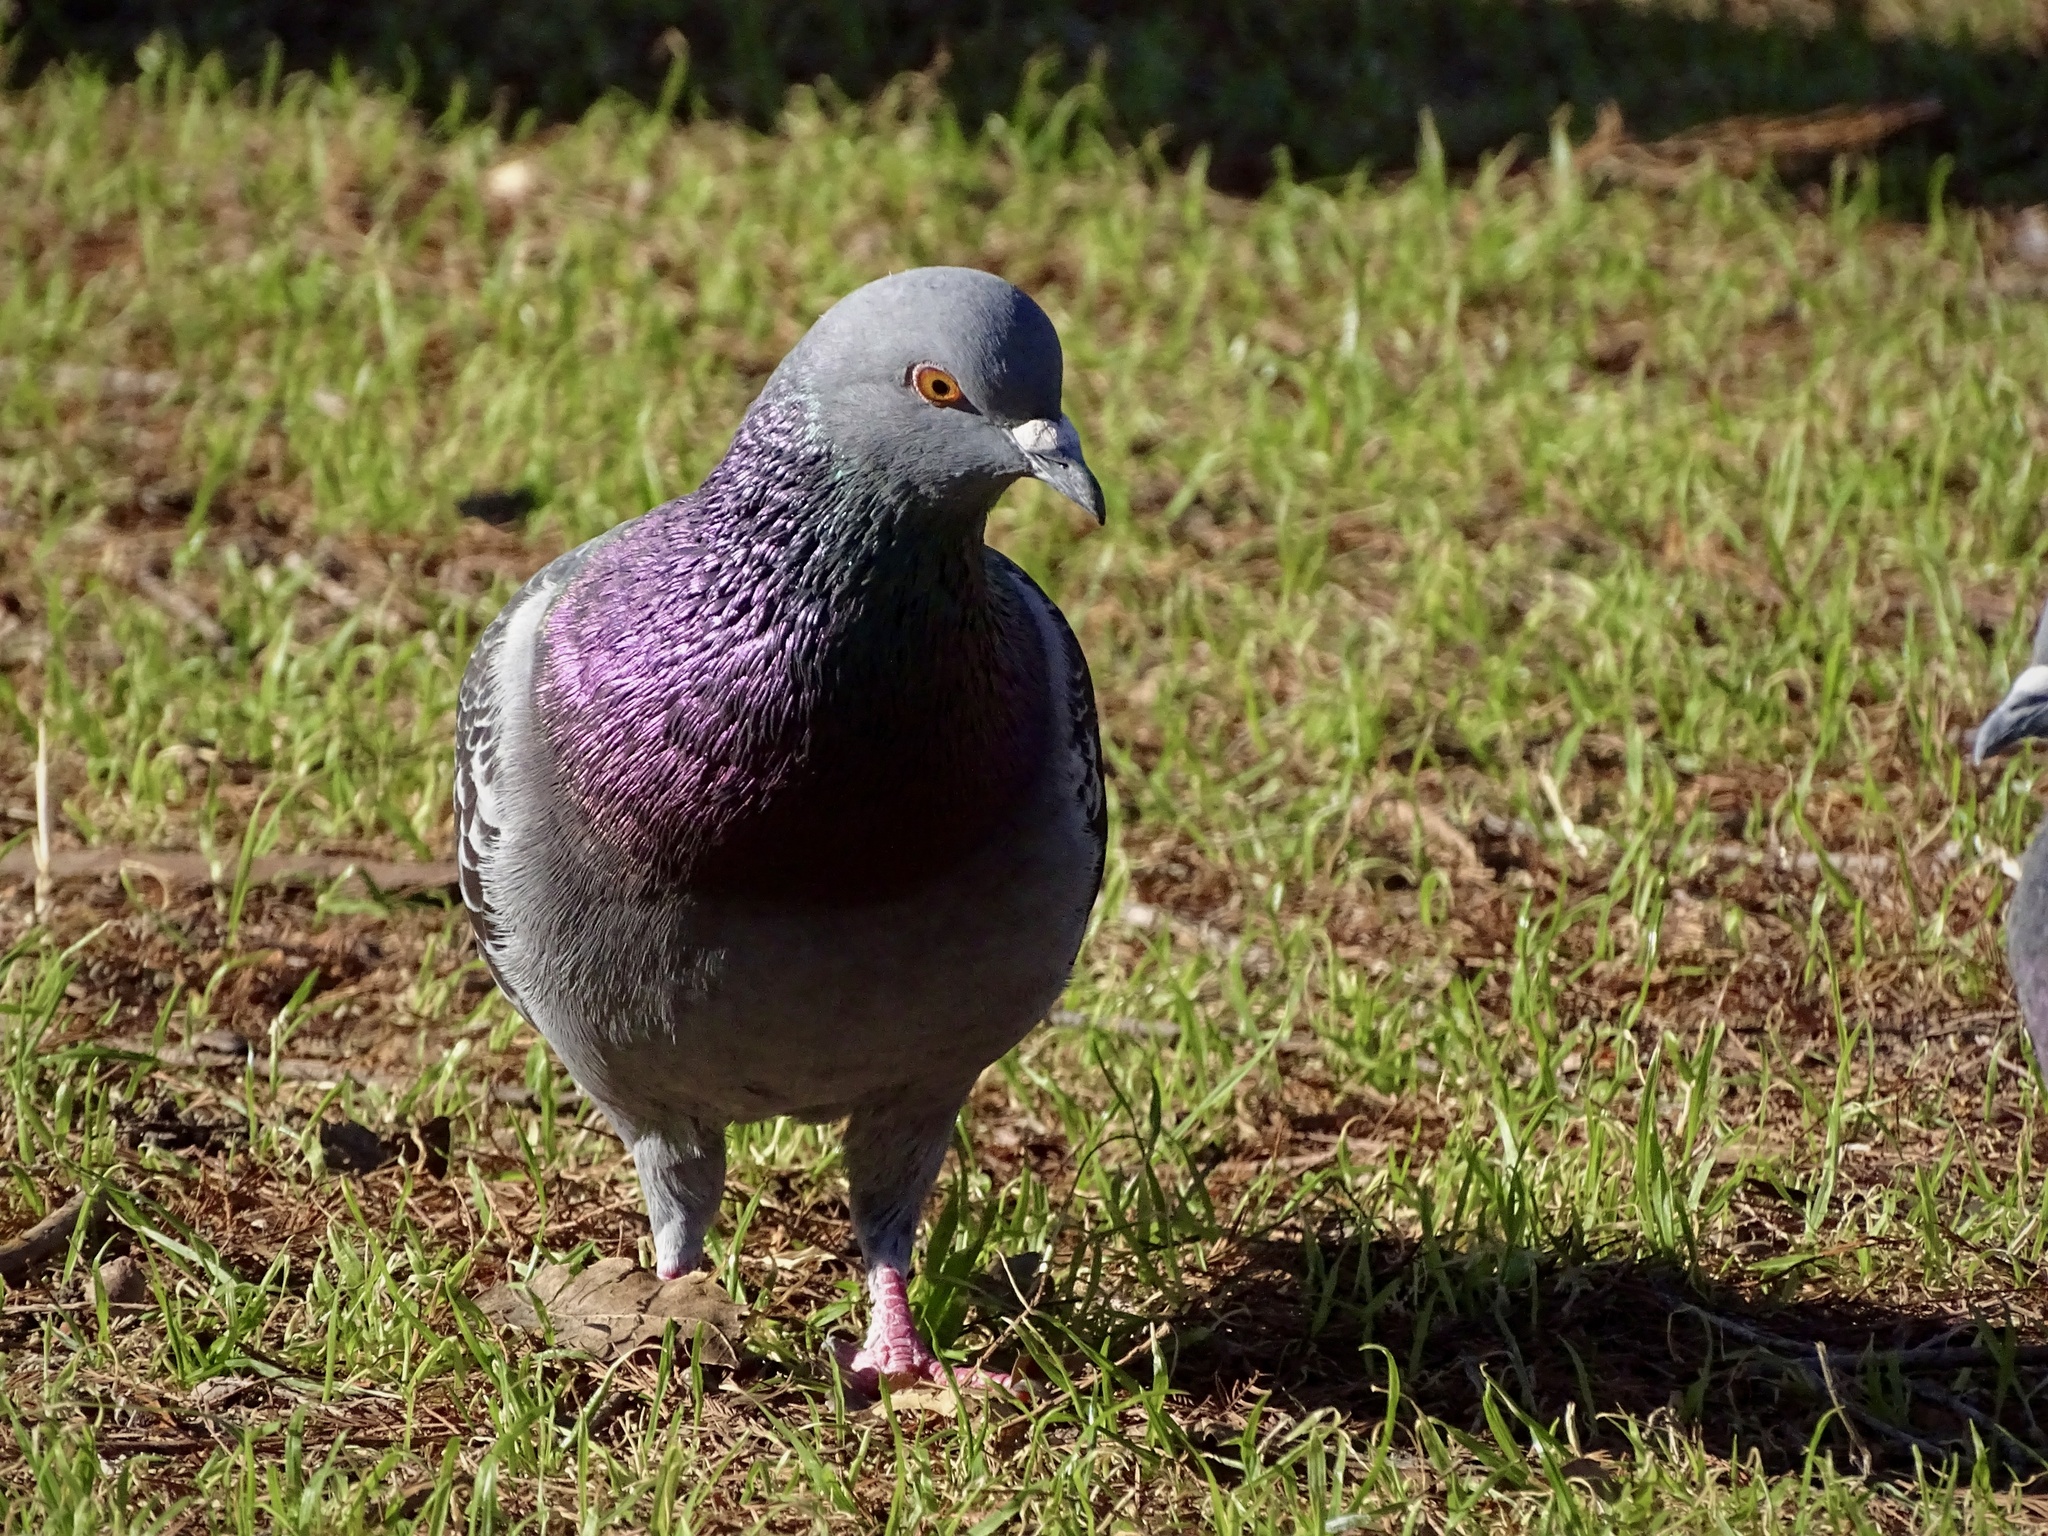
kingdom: Animalia
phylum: Chordata
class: Aves
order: Columbiformes
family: Columbidae
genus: Columba
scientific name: Columba livia
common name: Rock pigeon
